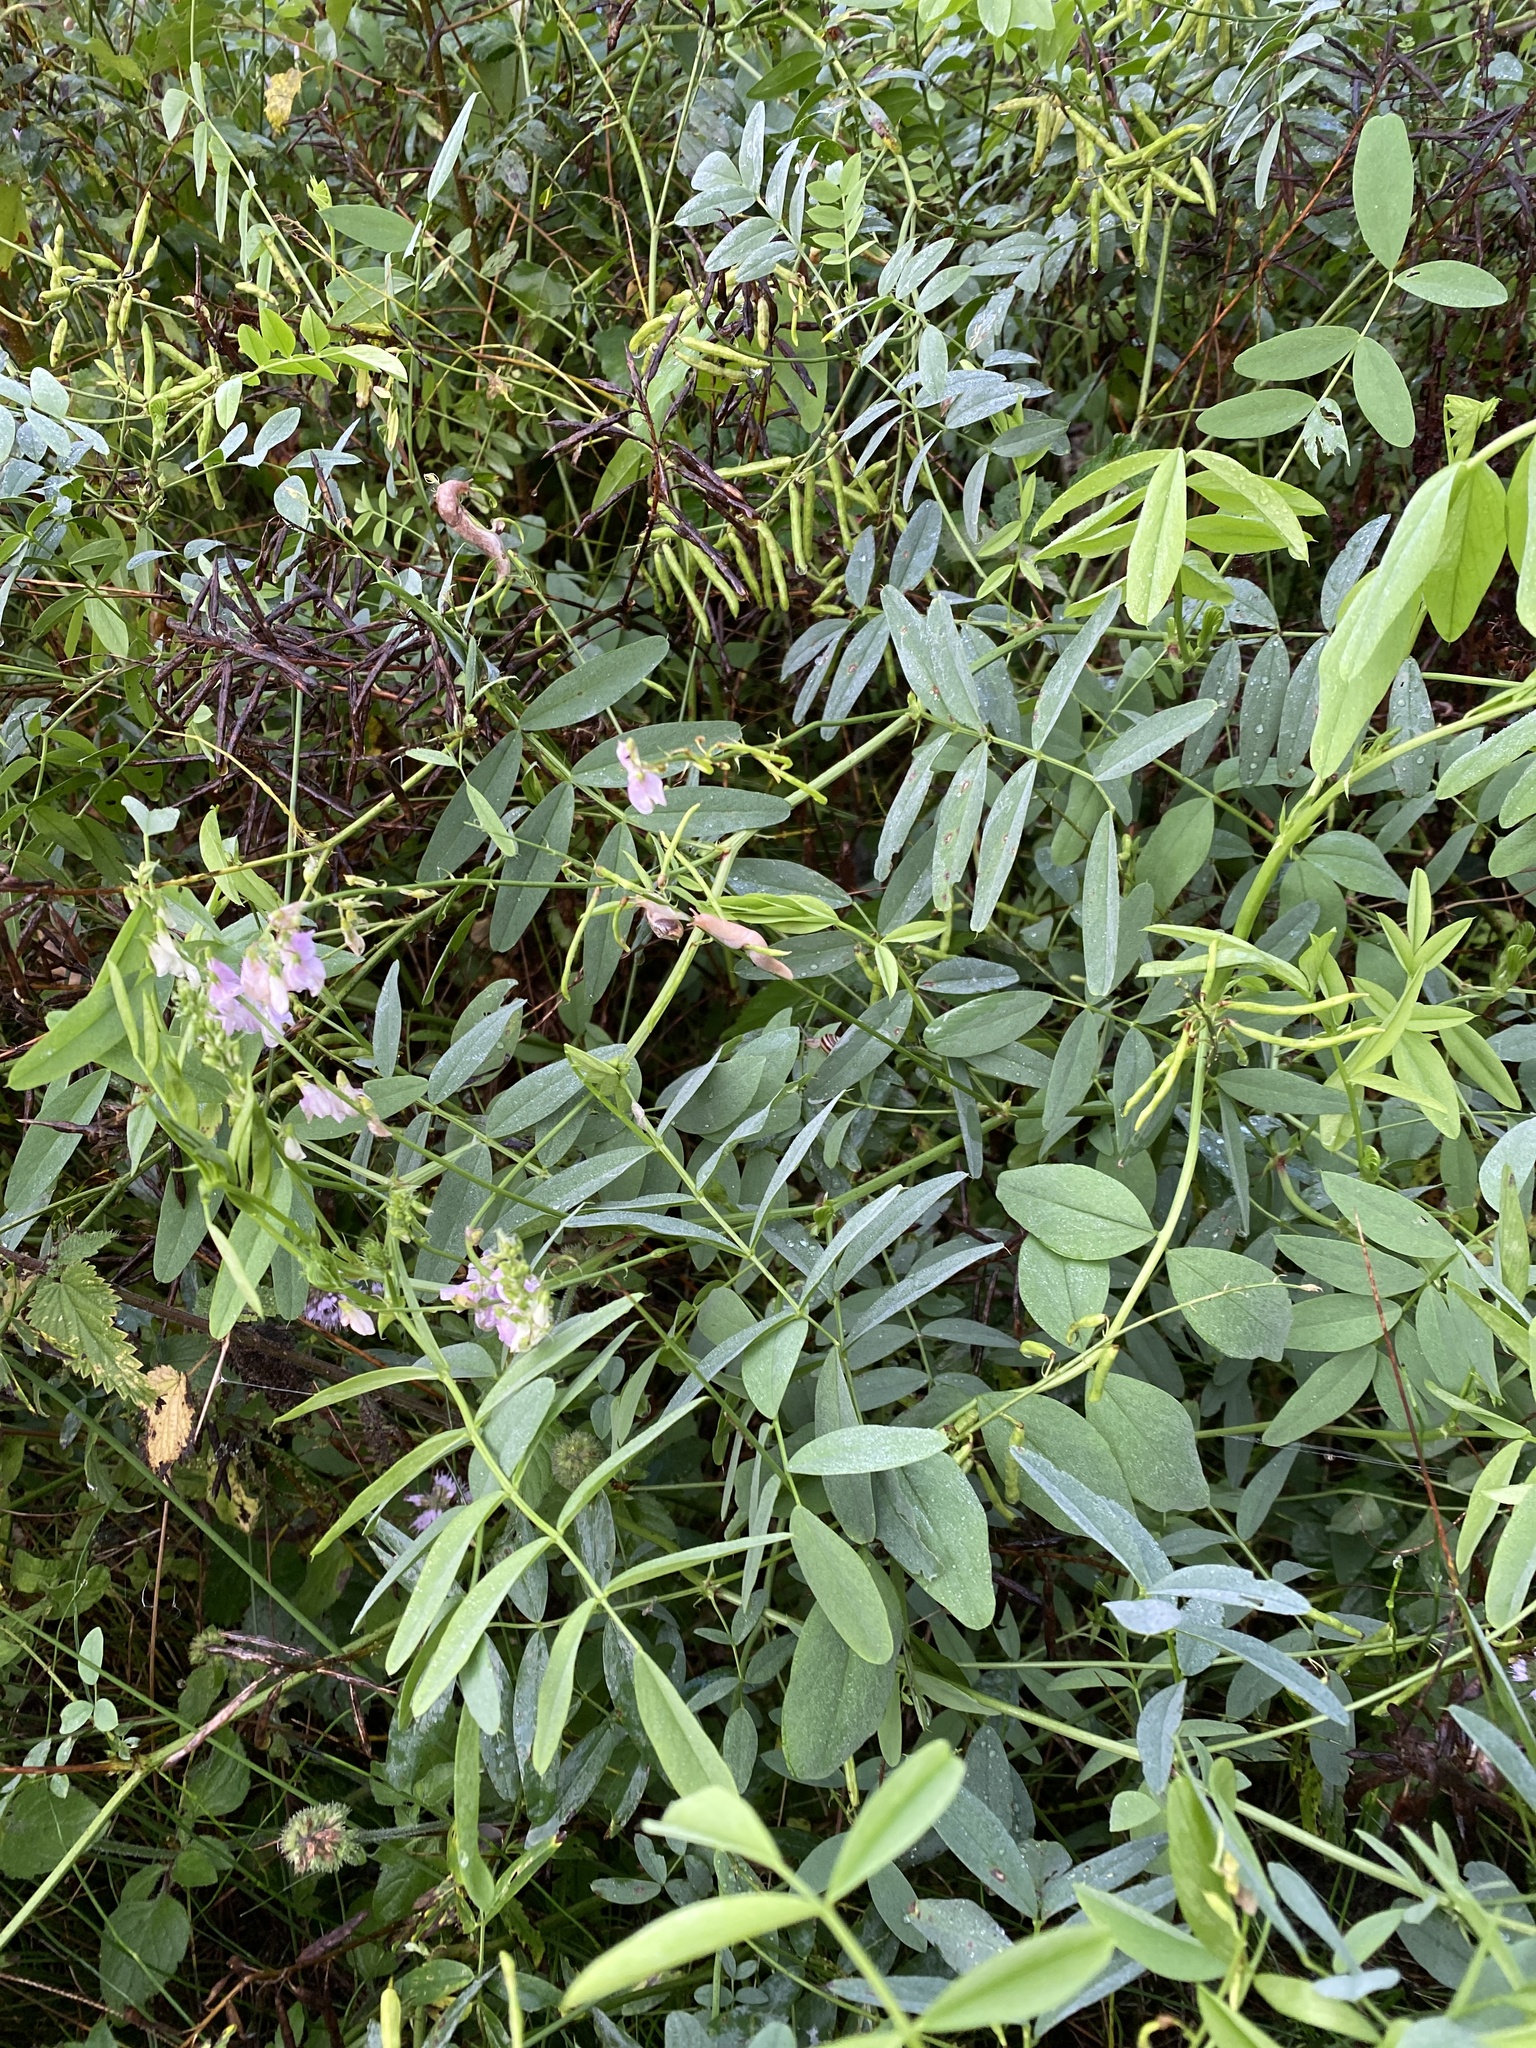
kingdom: Plantae
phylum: Tracheophyta
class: Magnoliopsida
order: Fabales
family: Fabaceae
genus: Galega
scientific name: Galega officinalis
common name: Goat's-rue
